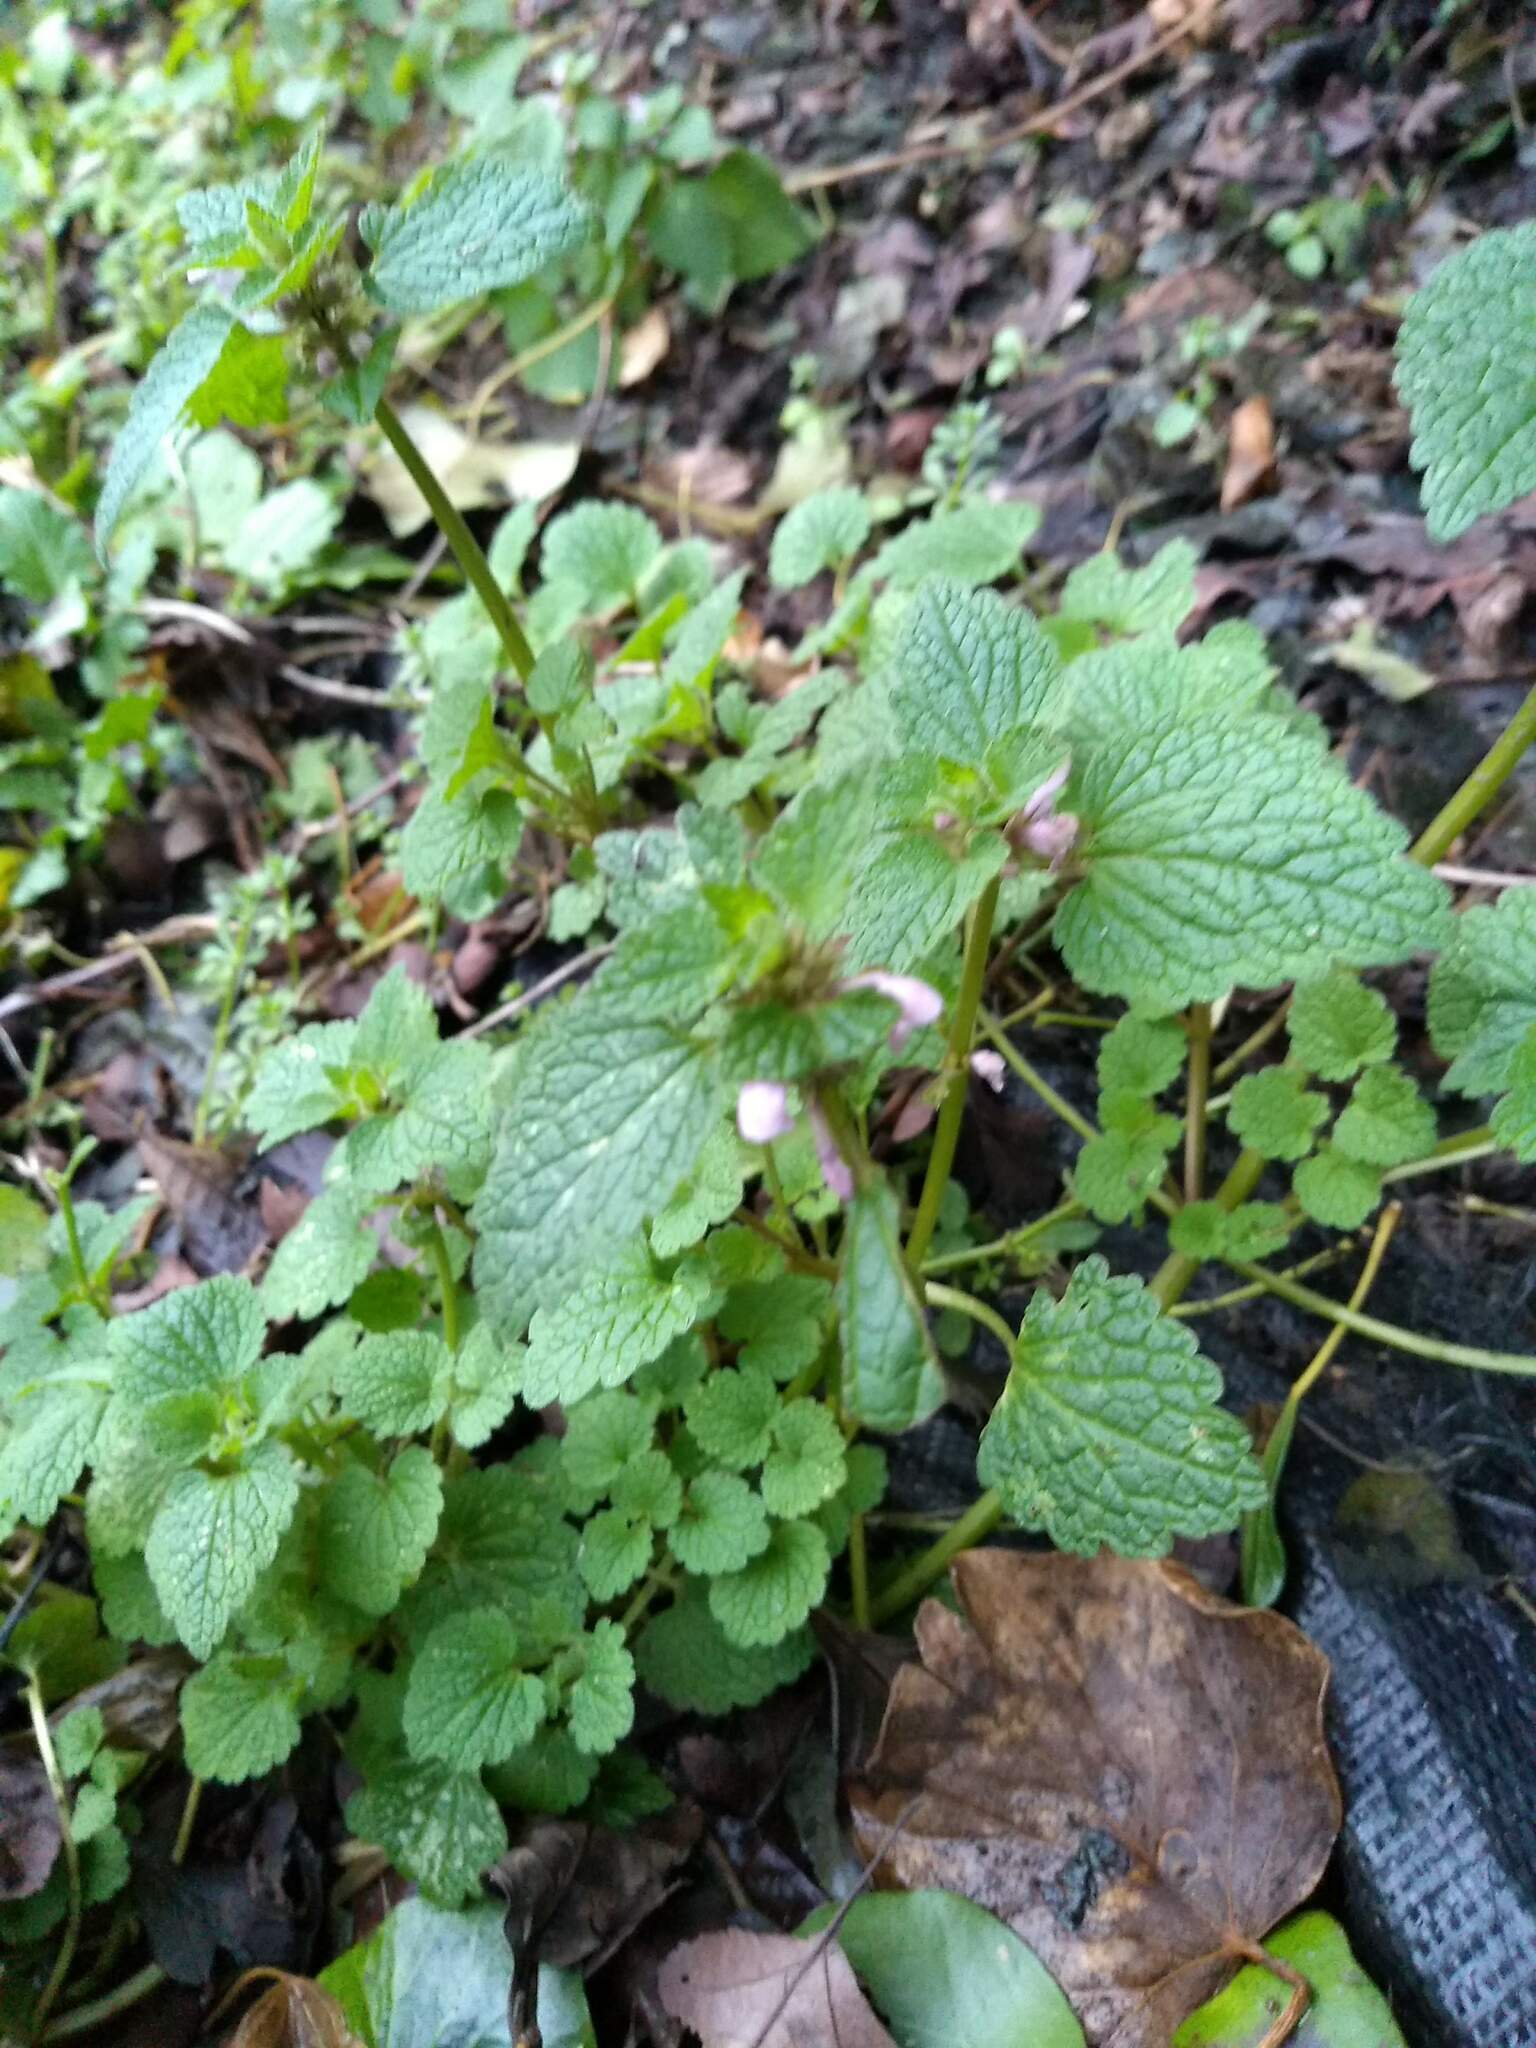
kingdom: Plantae
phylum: Tracheophyta
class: Magnoliopsida
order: Lamiales
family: Lamiaceae
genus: Lamium
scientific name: Lamium purpureum
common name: Red dead-nettle
